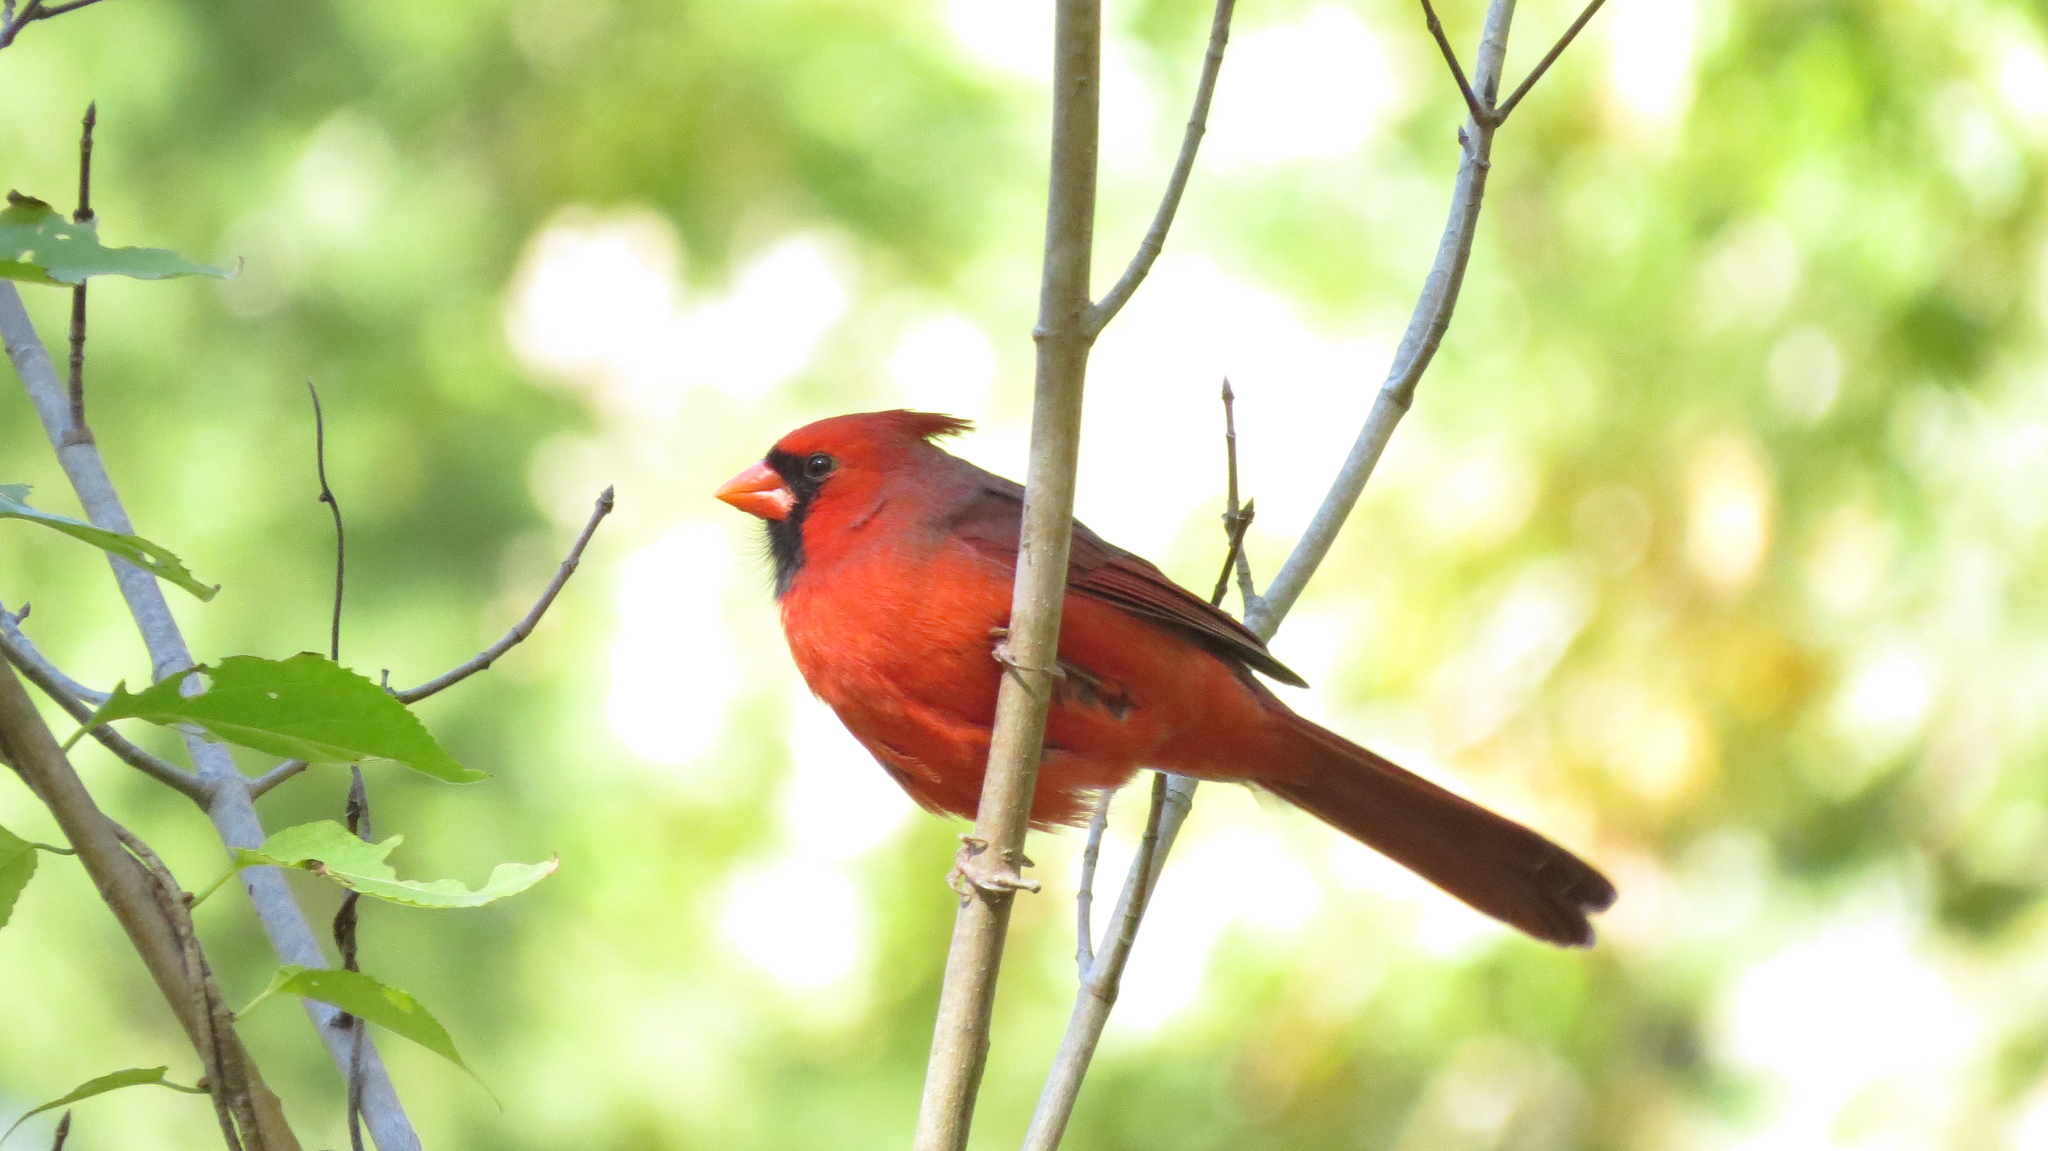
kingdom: Animalia
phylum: Chordata
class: Aves
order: Passeriformes
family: Cardinalidae
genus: Cardinalis
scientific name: Cardinalis cardinalis
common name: Northern cardinal
